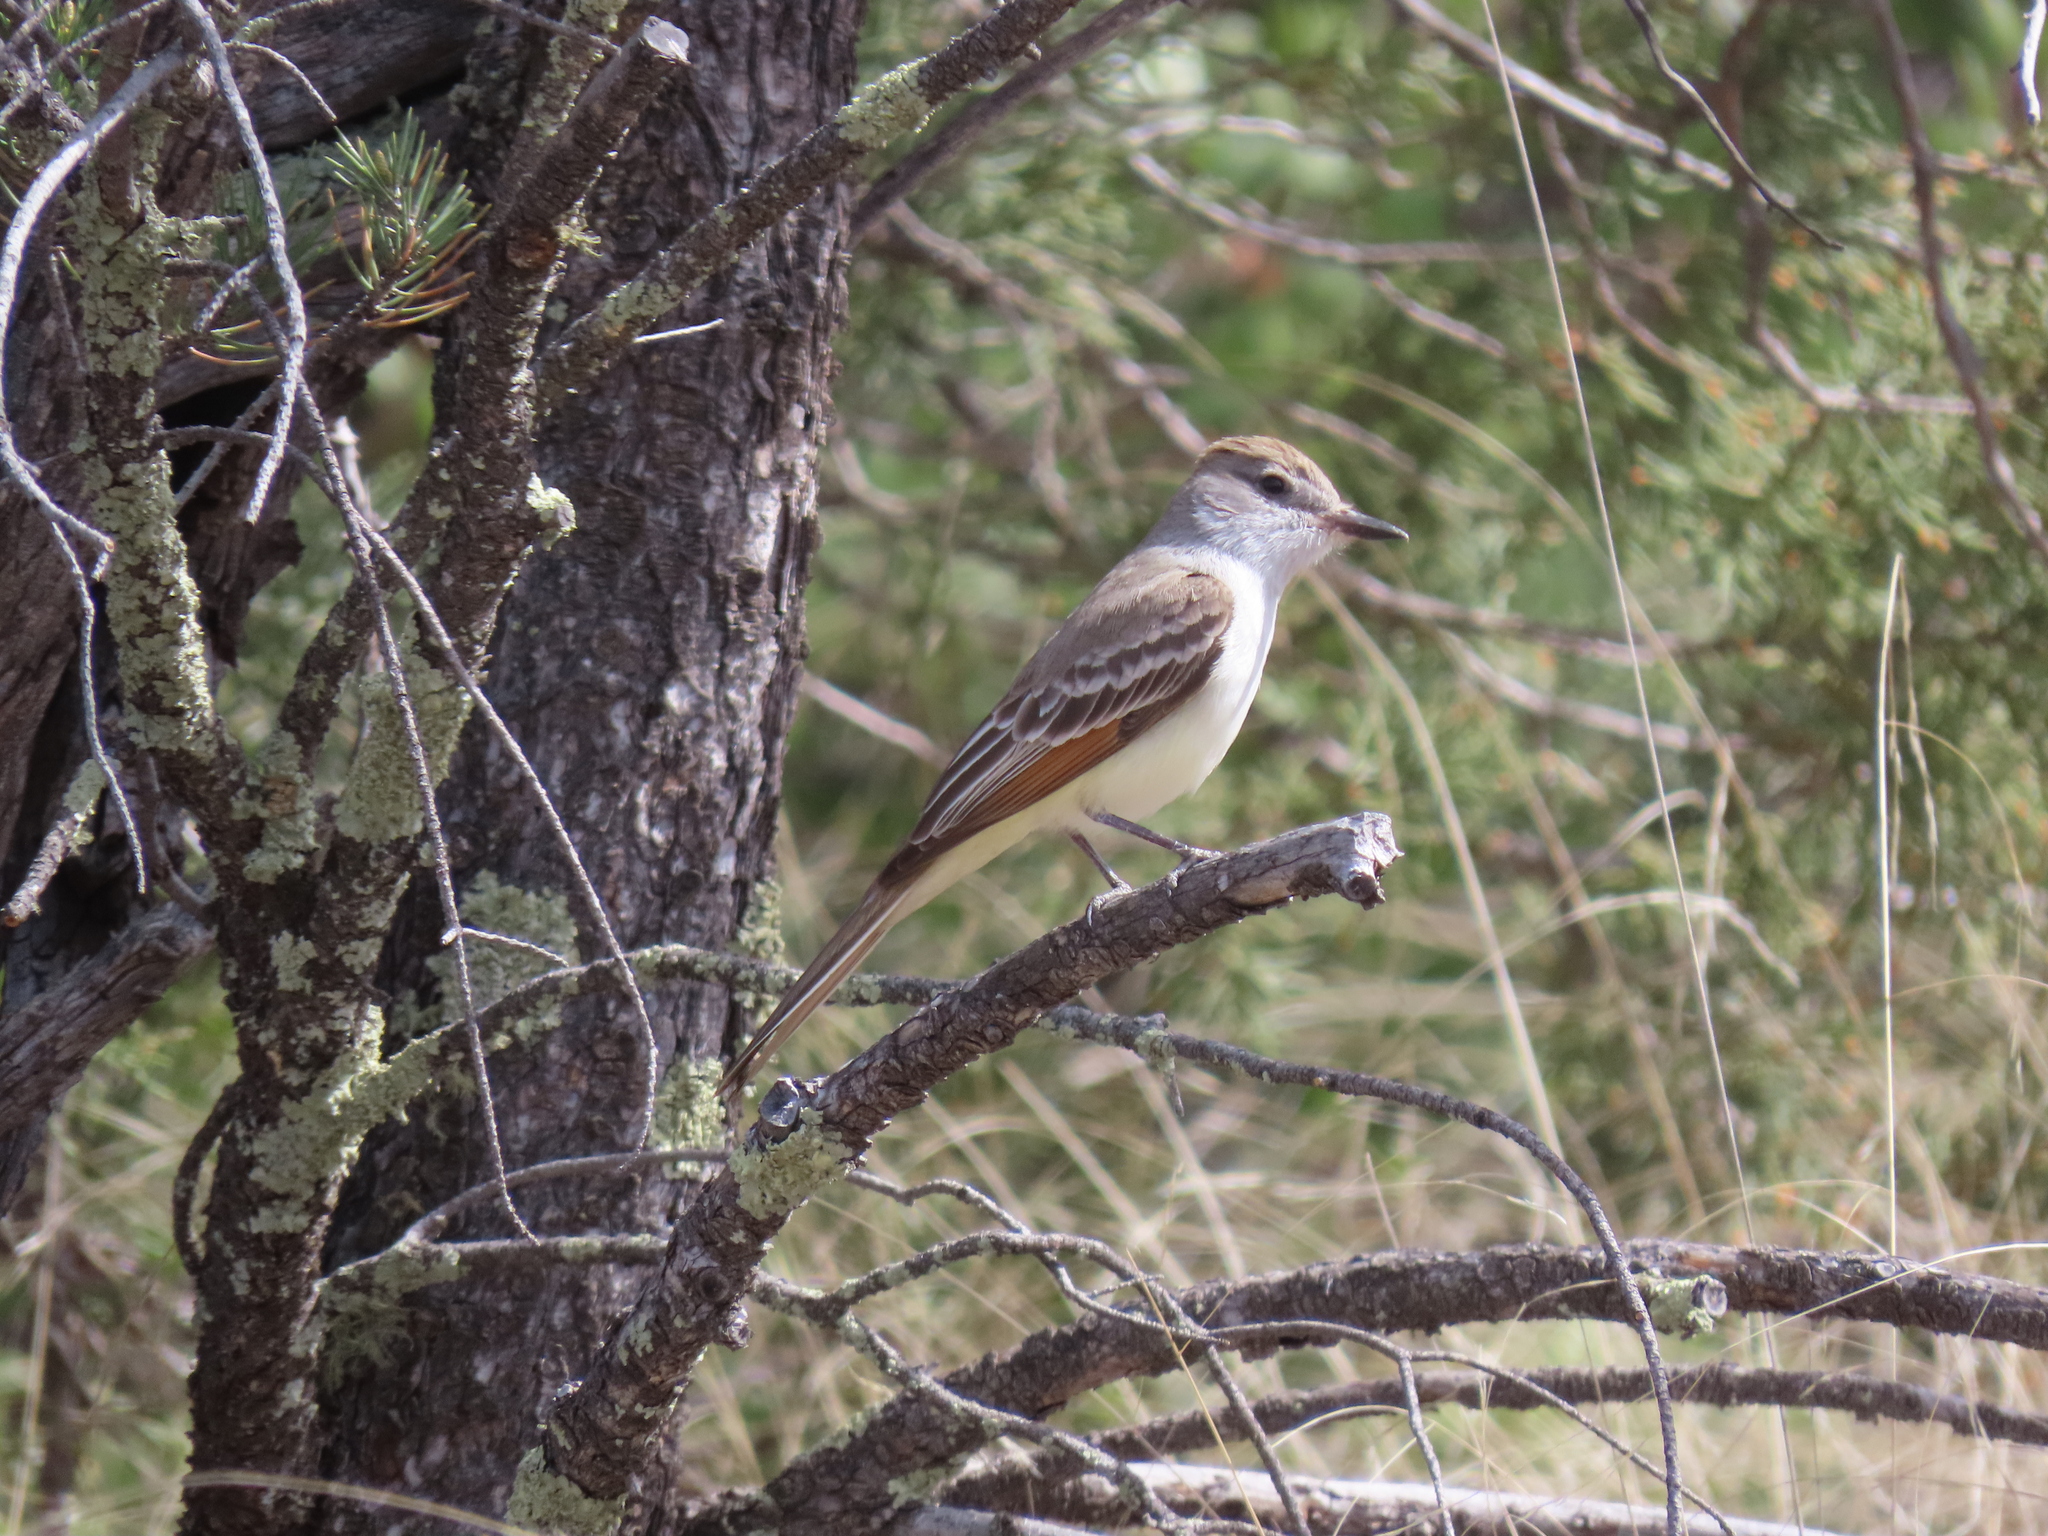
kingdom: Animalia
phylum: Chordata
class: Aves
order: Passeriformes
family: Tyrannidae
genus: Myiarchus
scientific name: Myiarchus cinerascens
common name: Ash-throated flycatcher
